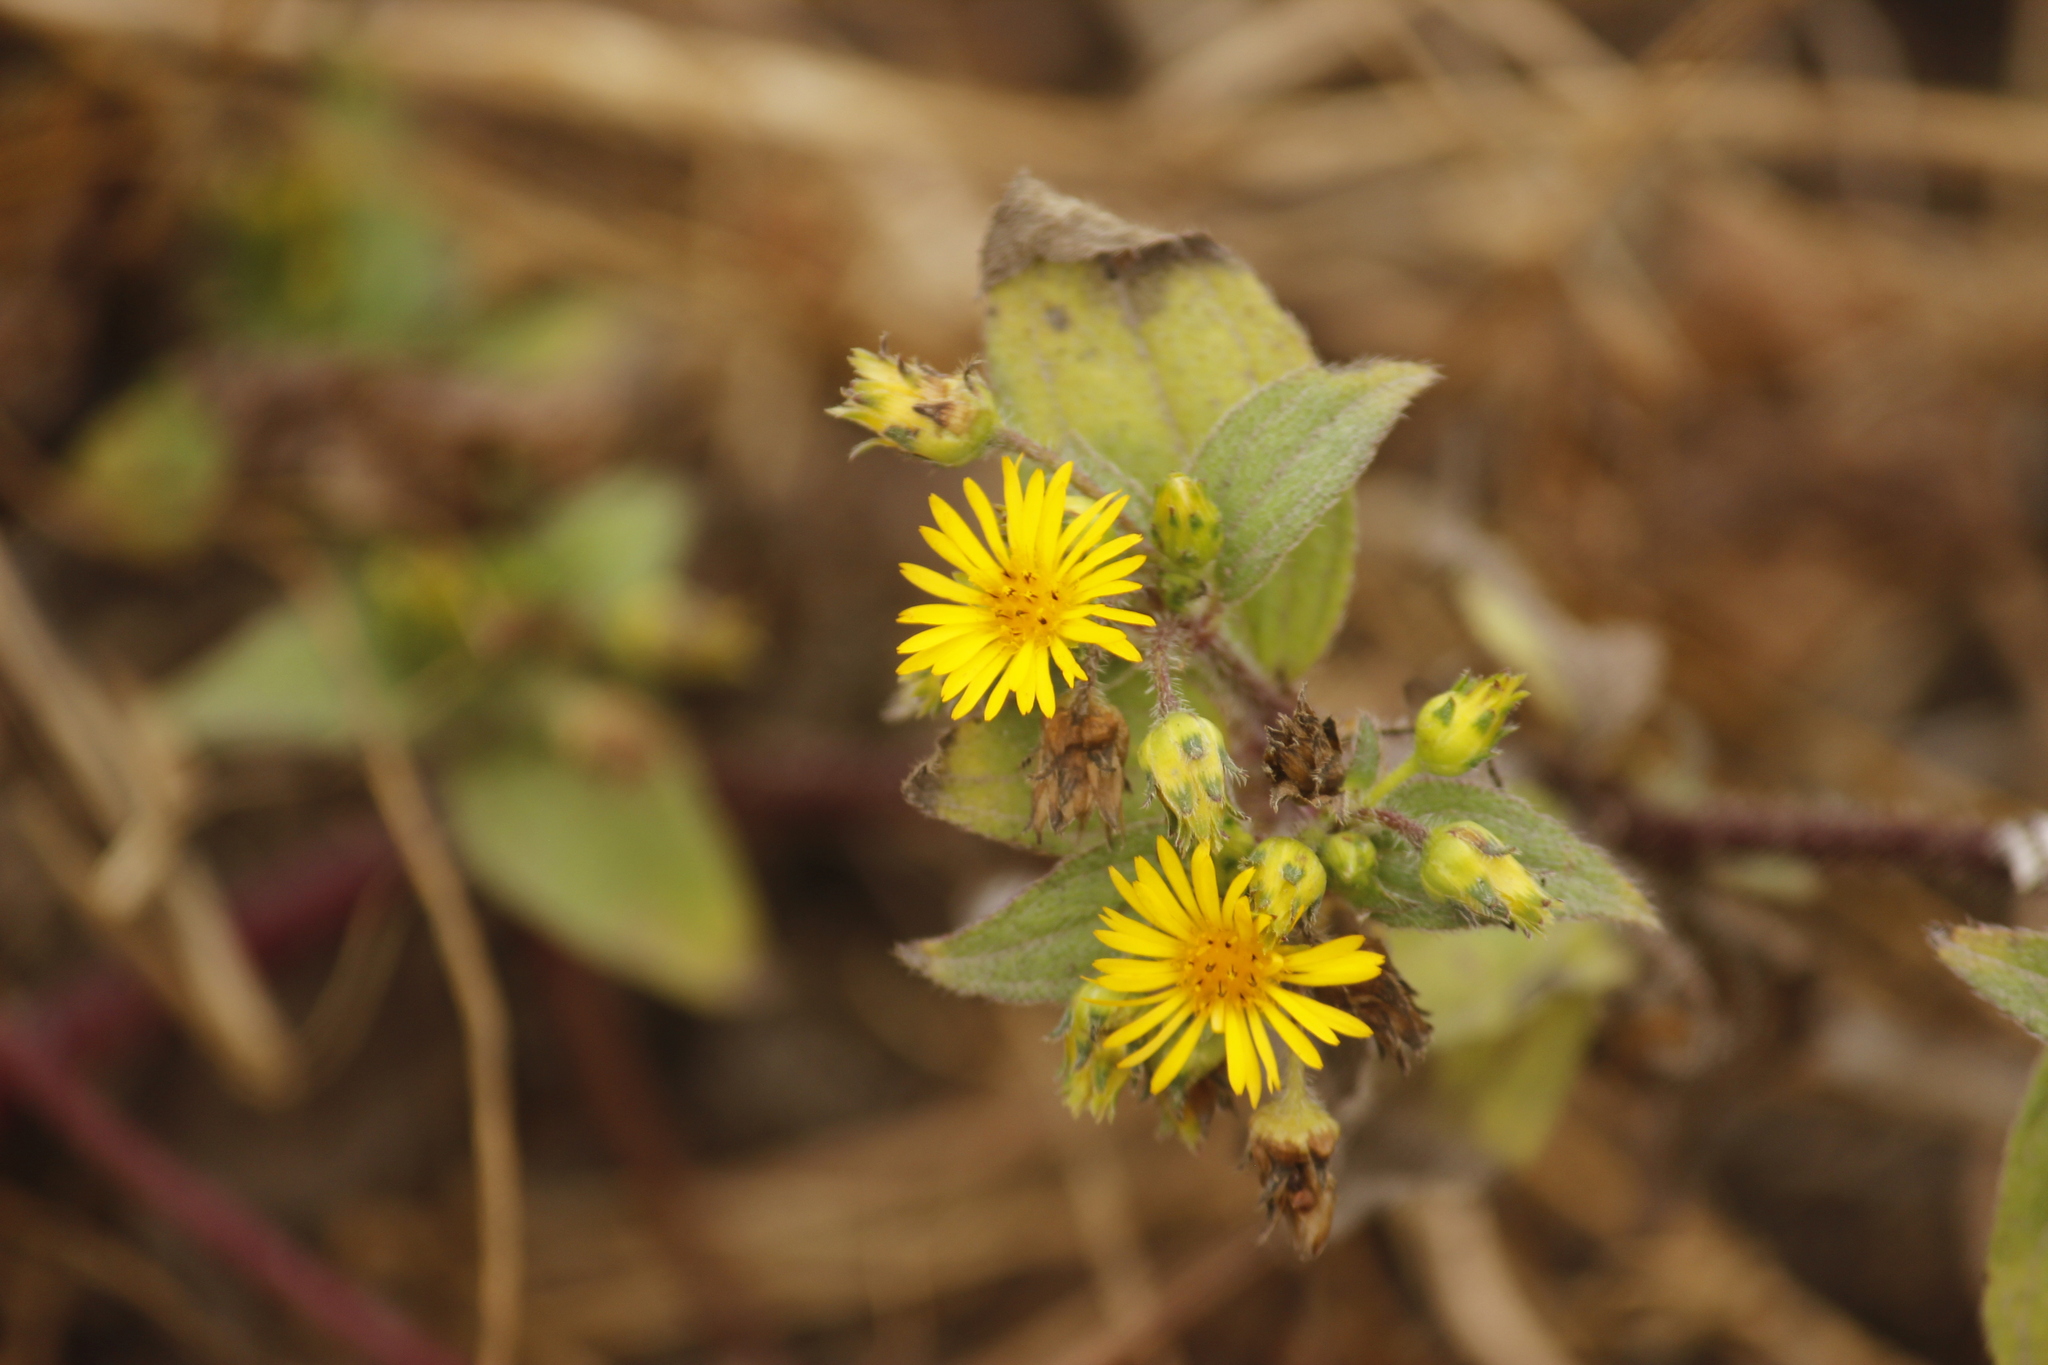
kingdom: Plantae
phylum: Tracheophyta
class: Magnoliopsida
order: Asterales
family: Asteraceae
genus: Philoglossa
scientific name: Philoglossa peruviana
